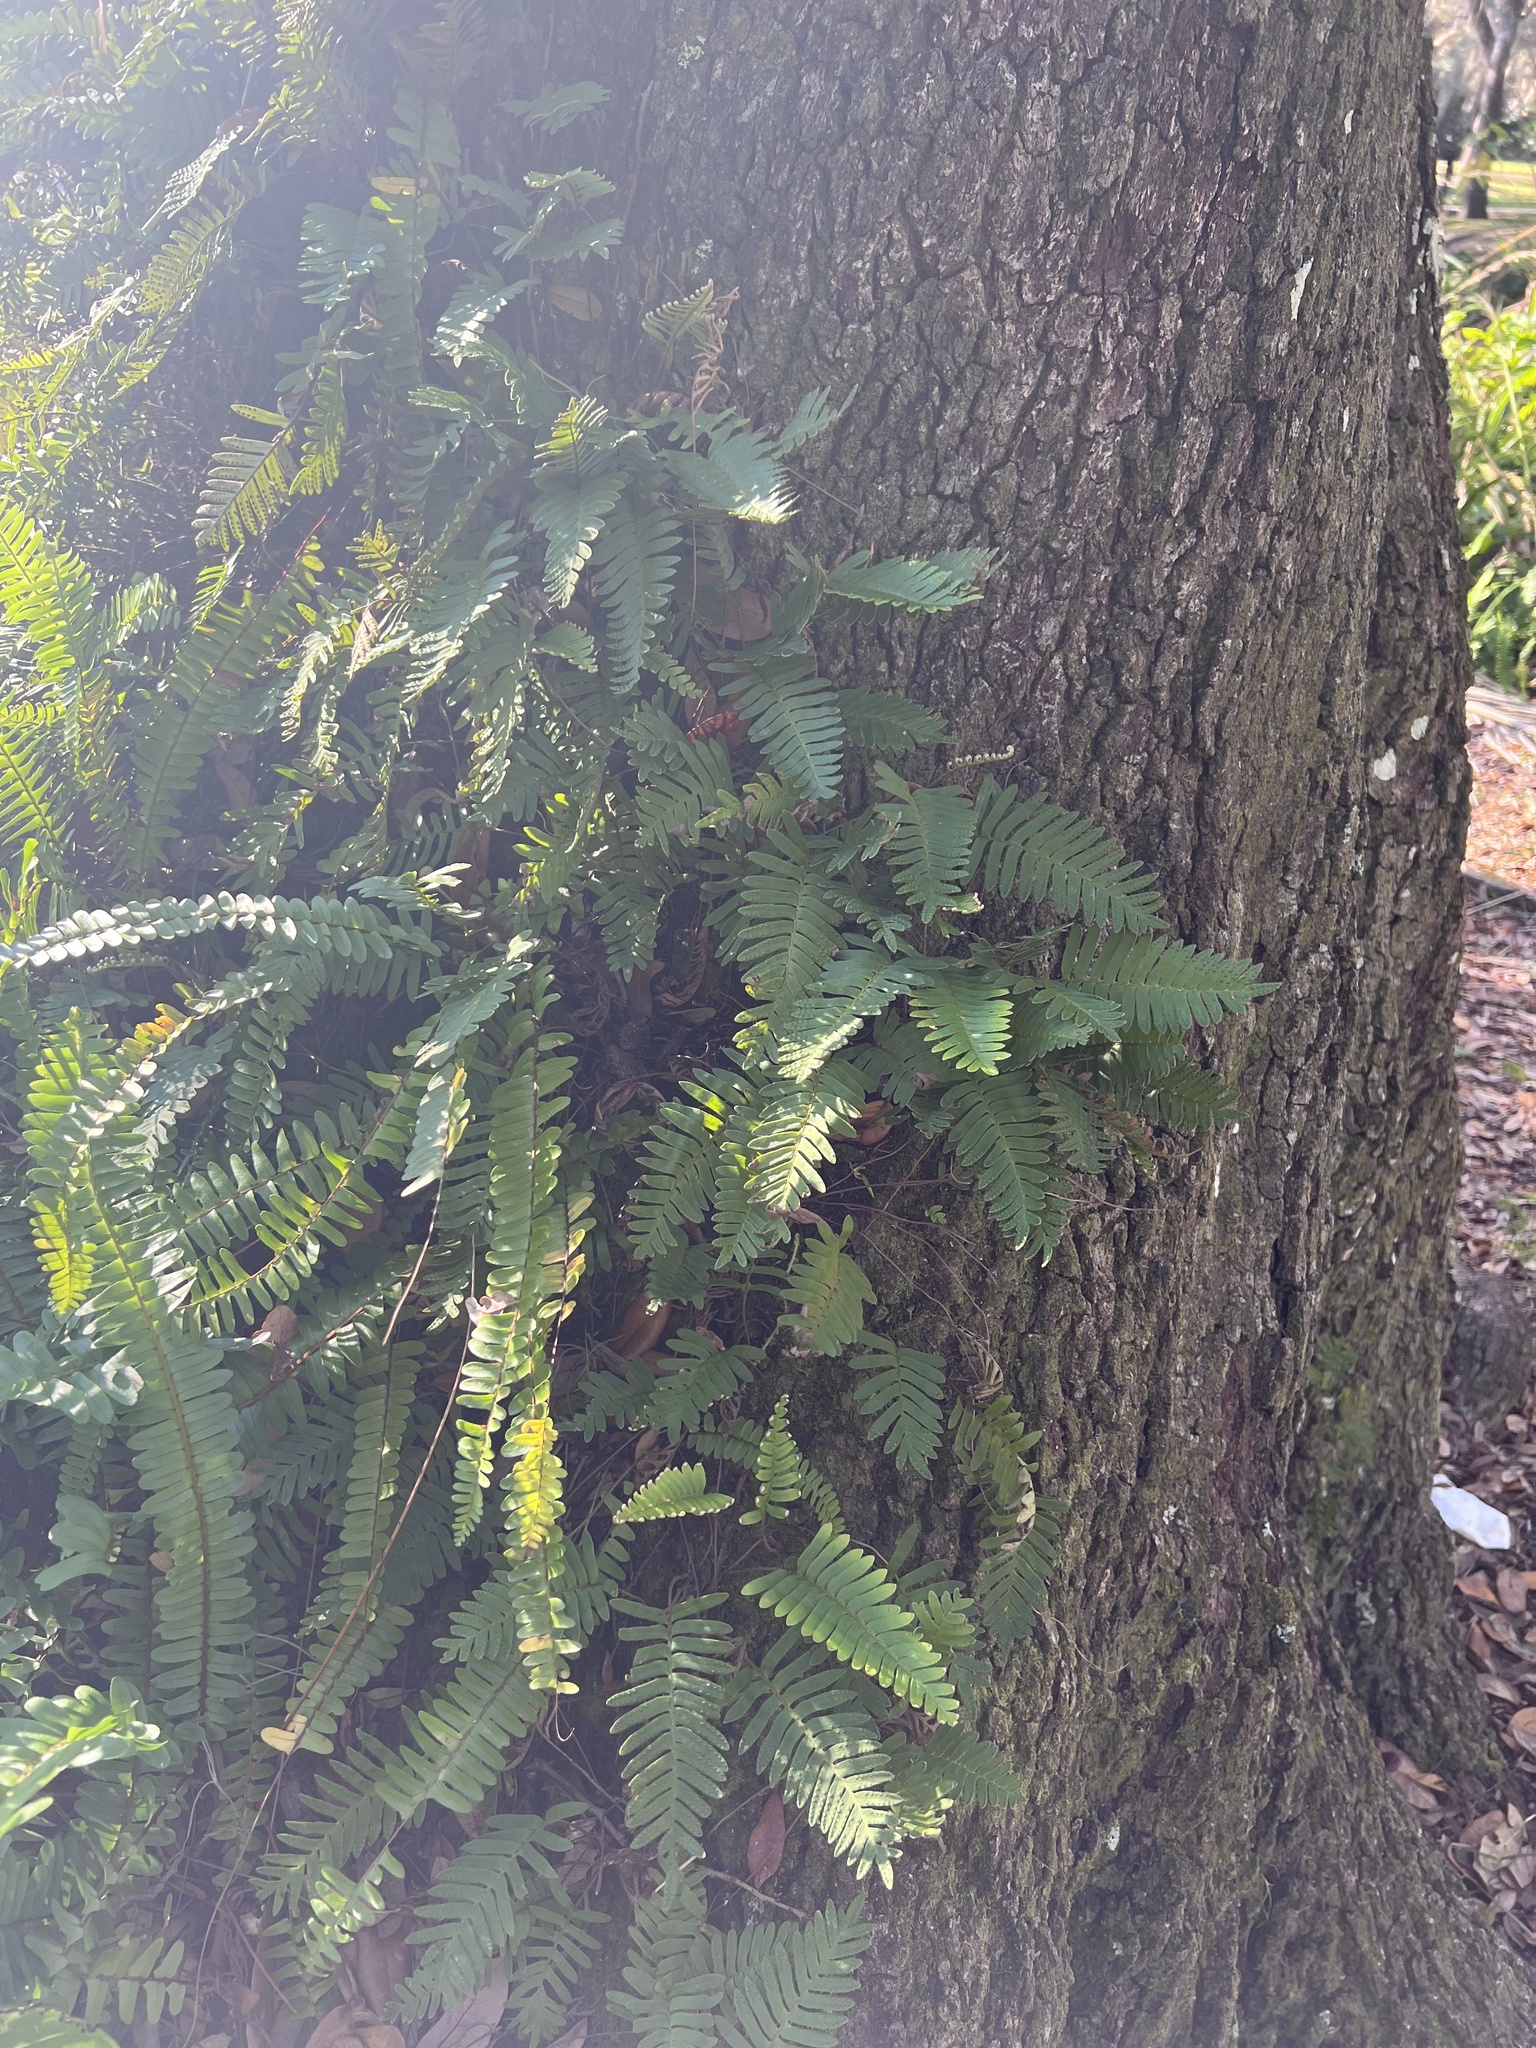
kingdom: Plantae
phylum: Tracheophyta
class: Polypodiopsida
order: Polypodiales
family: Polypodiaceae
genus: Pleopeltis
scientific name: Pleopeltis michauxiana
